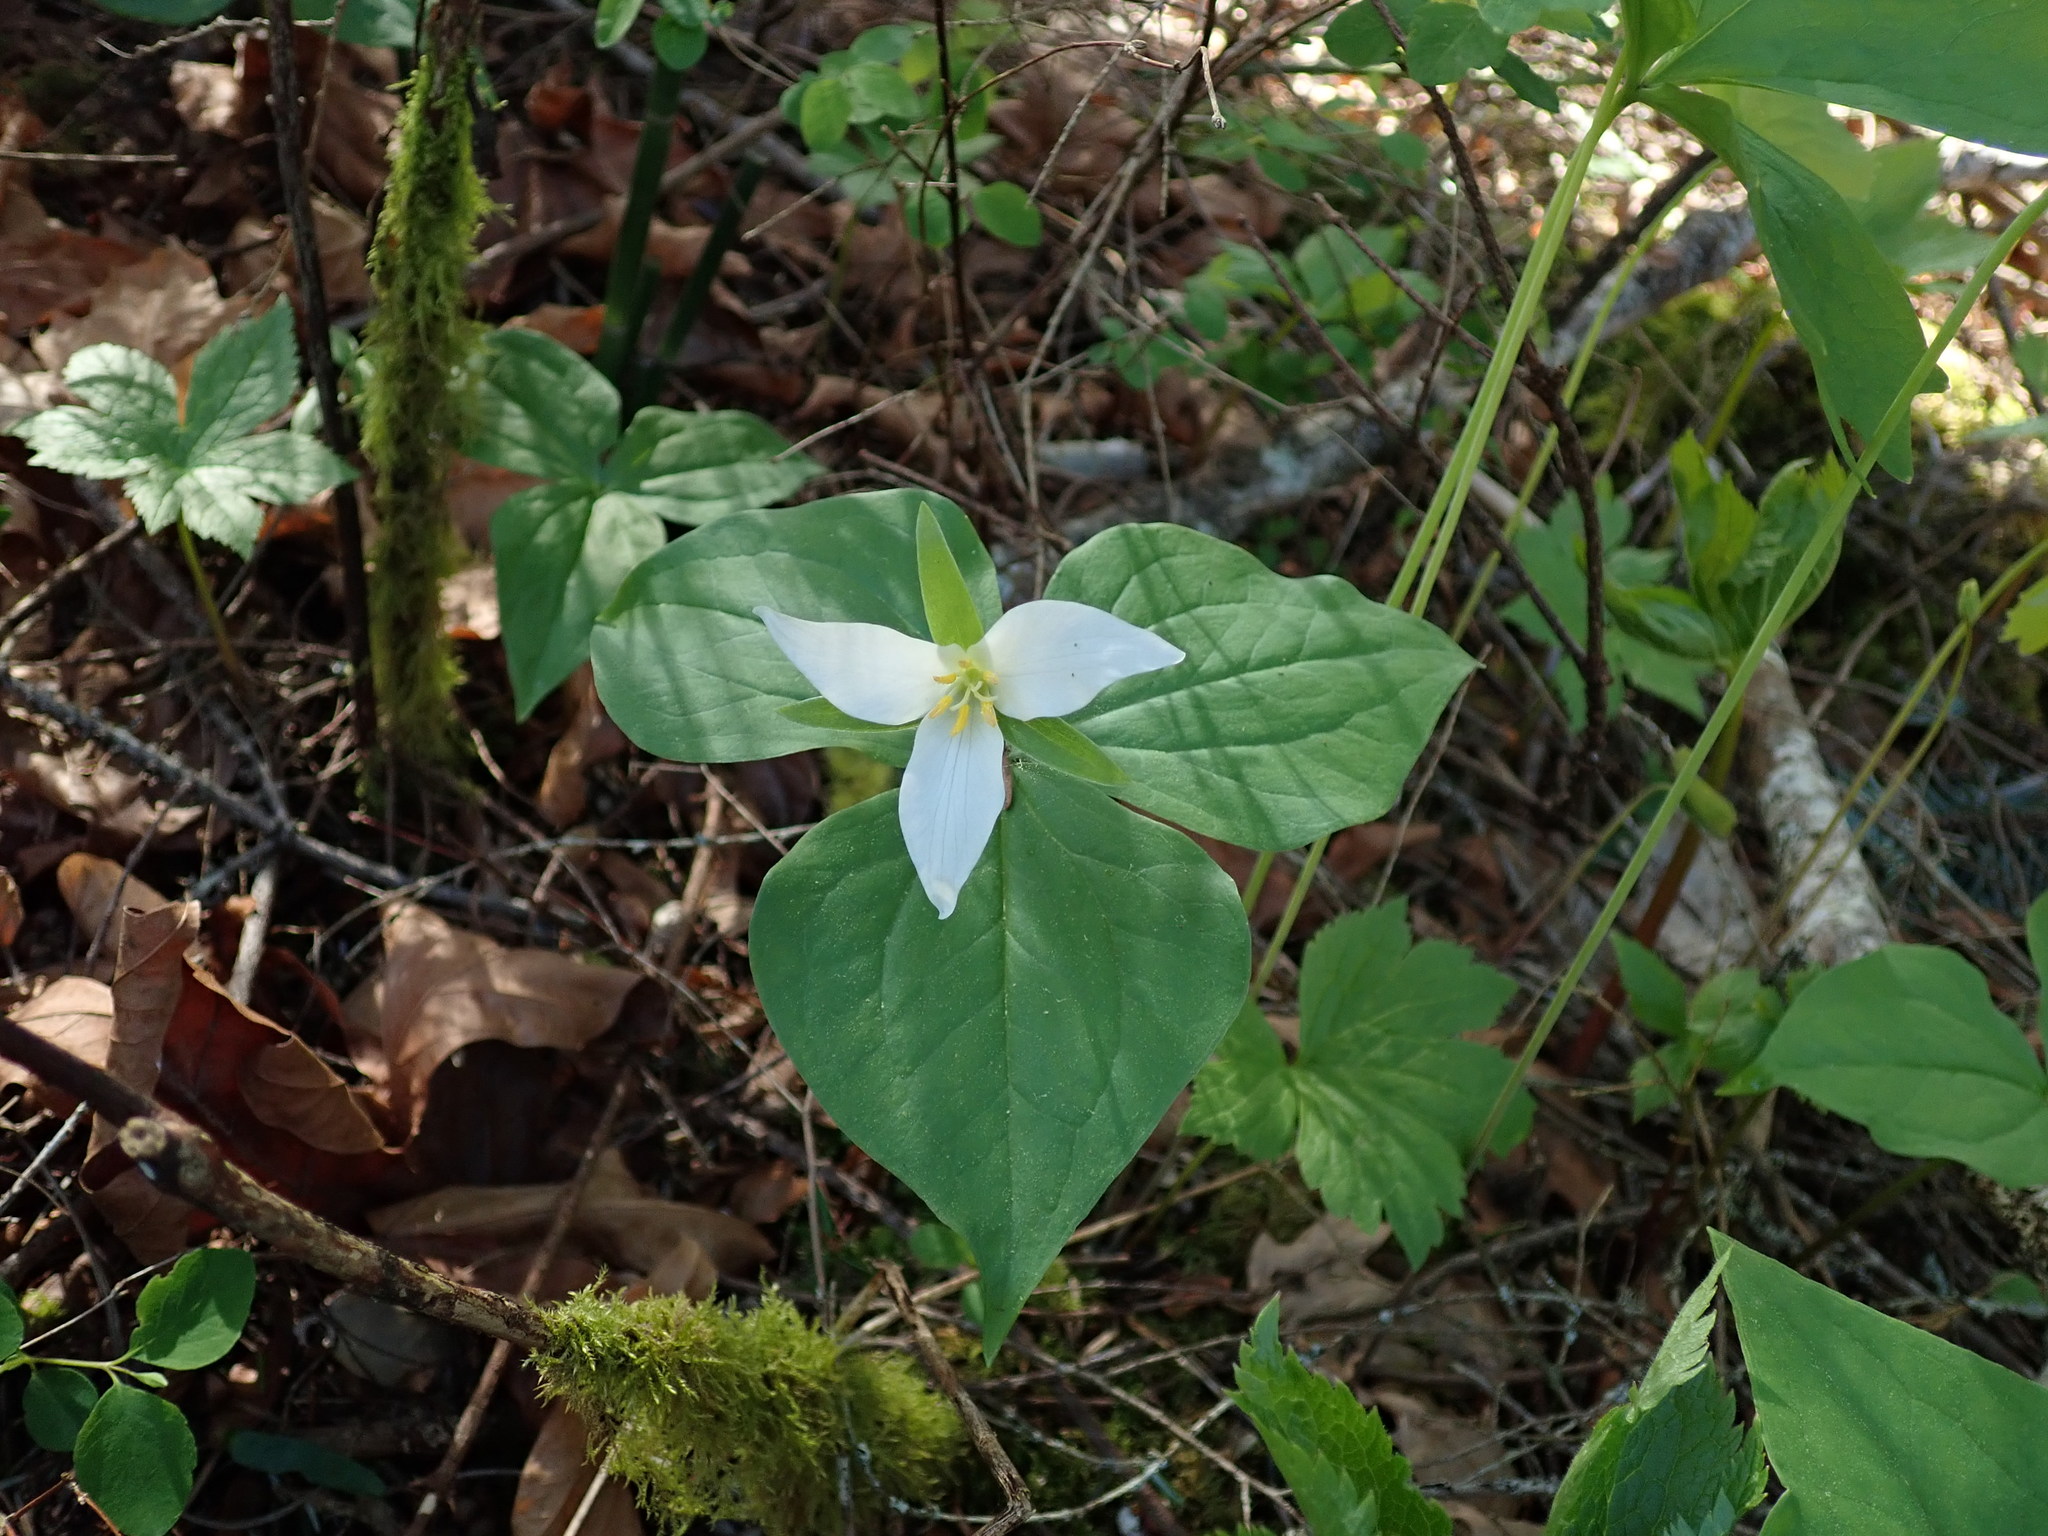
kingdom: Plantae
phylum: Tracheophyta
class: Liliopsida
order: Liliales
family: Melanthiaceae
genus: Trillium
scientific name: Trillium ovatum
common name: Pacific trillium
